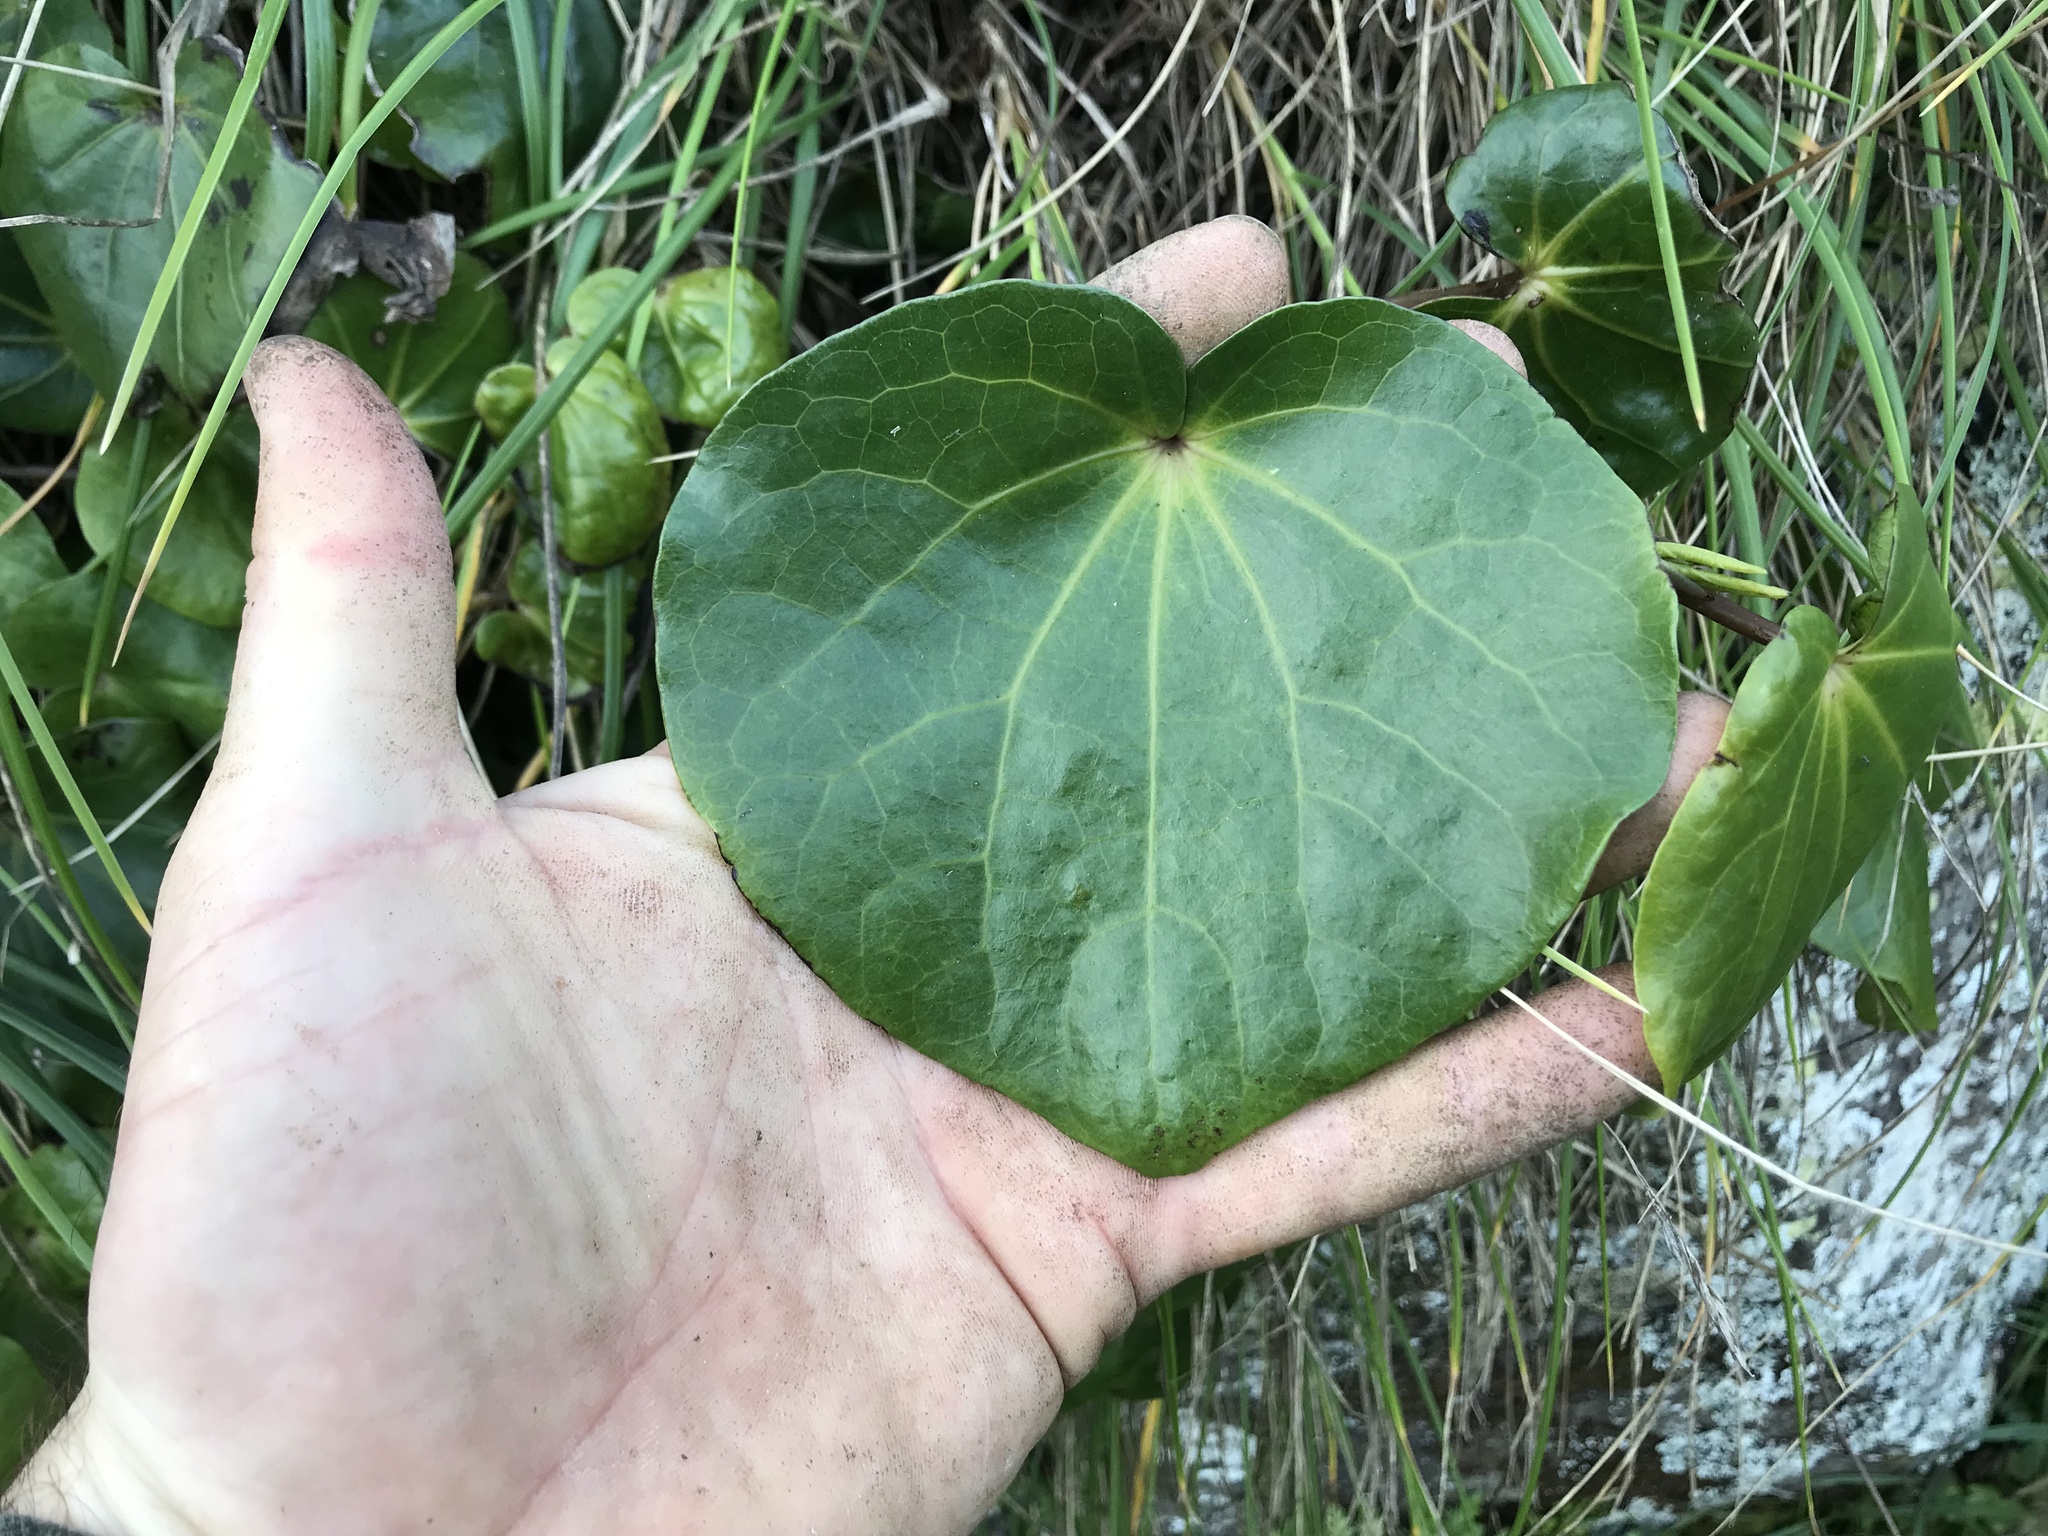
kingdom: Plantae
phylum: Tracheophyta
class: Magnoliopsida
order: Piperales
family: Piperaceae
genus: Macropiper
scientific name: Macropiper excelsum
